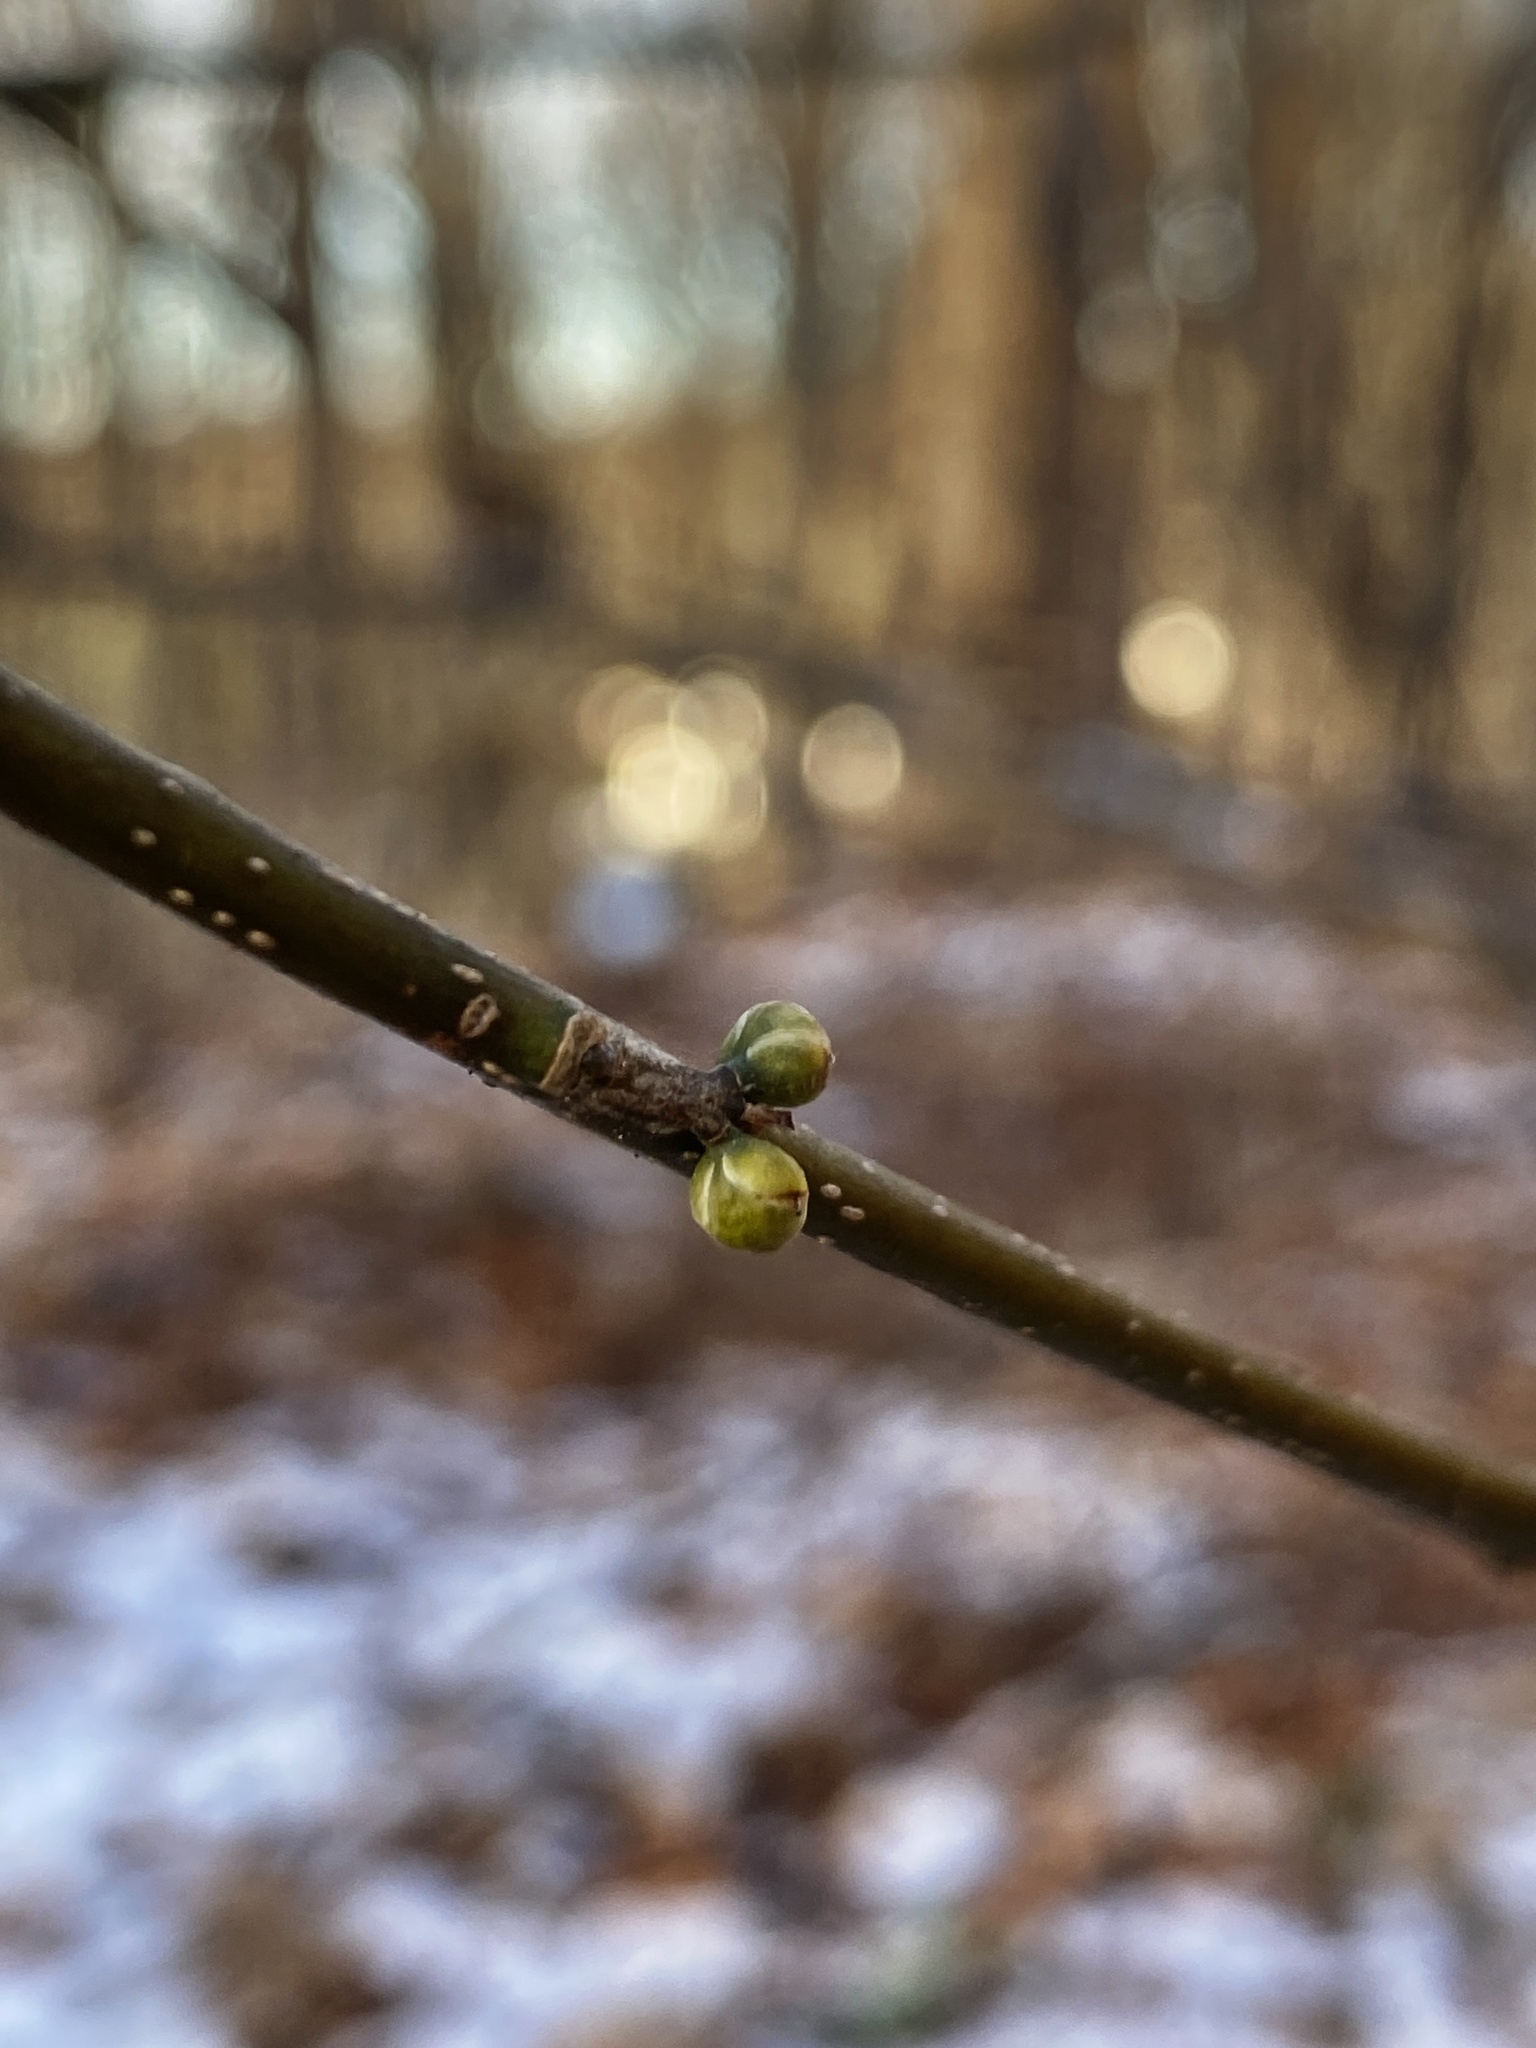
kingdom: Plantae
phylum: Tracheophyta
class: Magnoliopsida
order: Laurales
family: Lauraceae
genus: Lindera
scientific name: Lindera benzoin
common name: Spicebush
